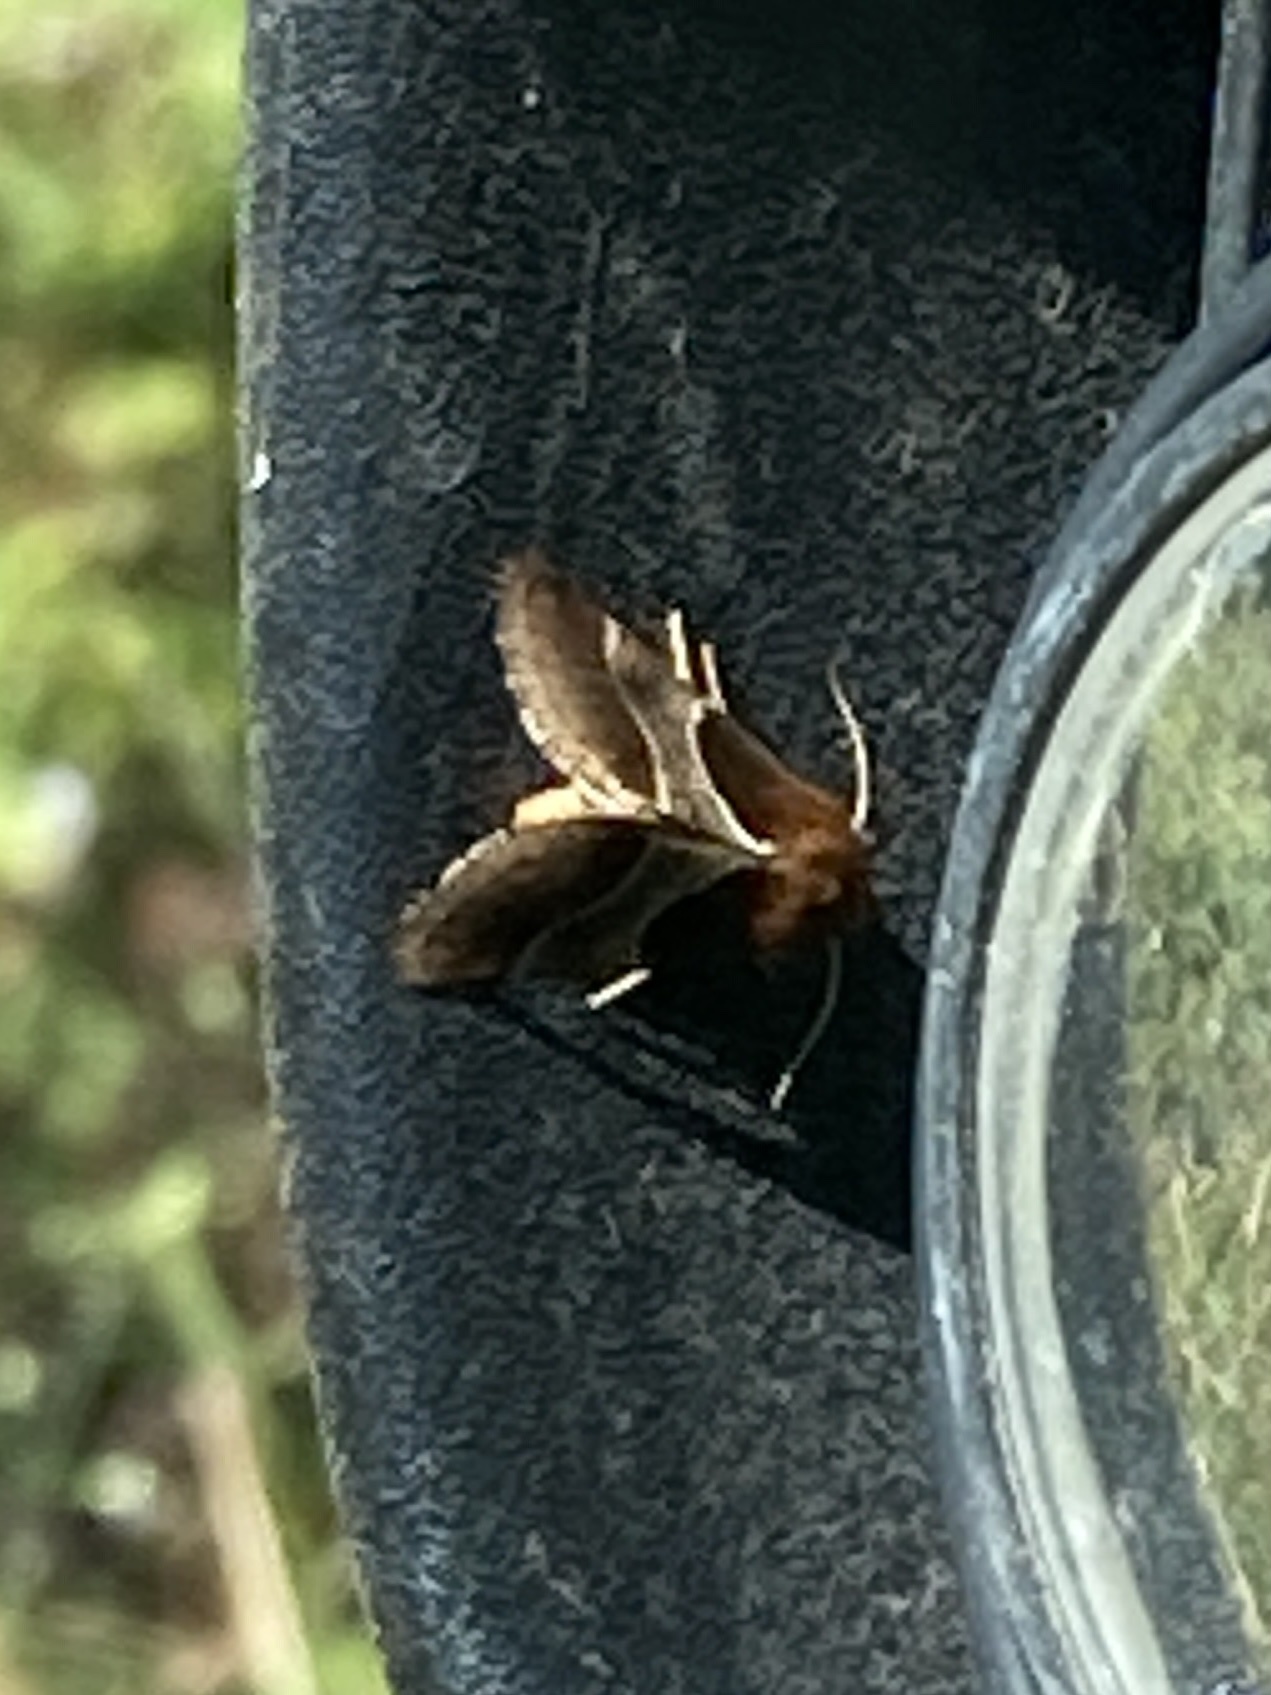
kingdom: Animalia
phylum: Arthropoda
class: Insecta
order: Lepidoptera
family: Noctuidae
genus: Schinia
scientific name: Schinia arcigera
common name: Arcigera flower moth
